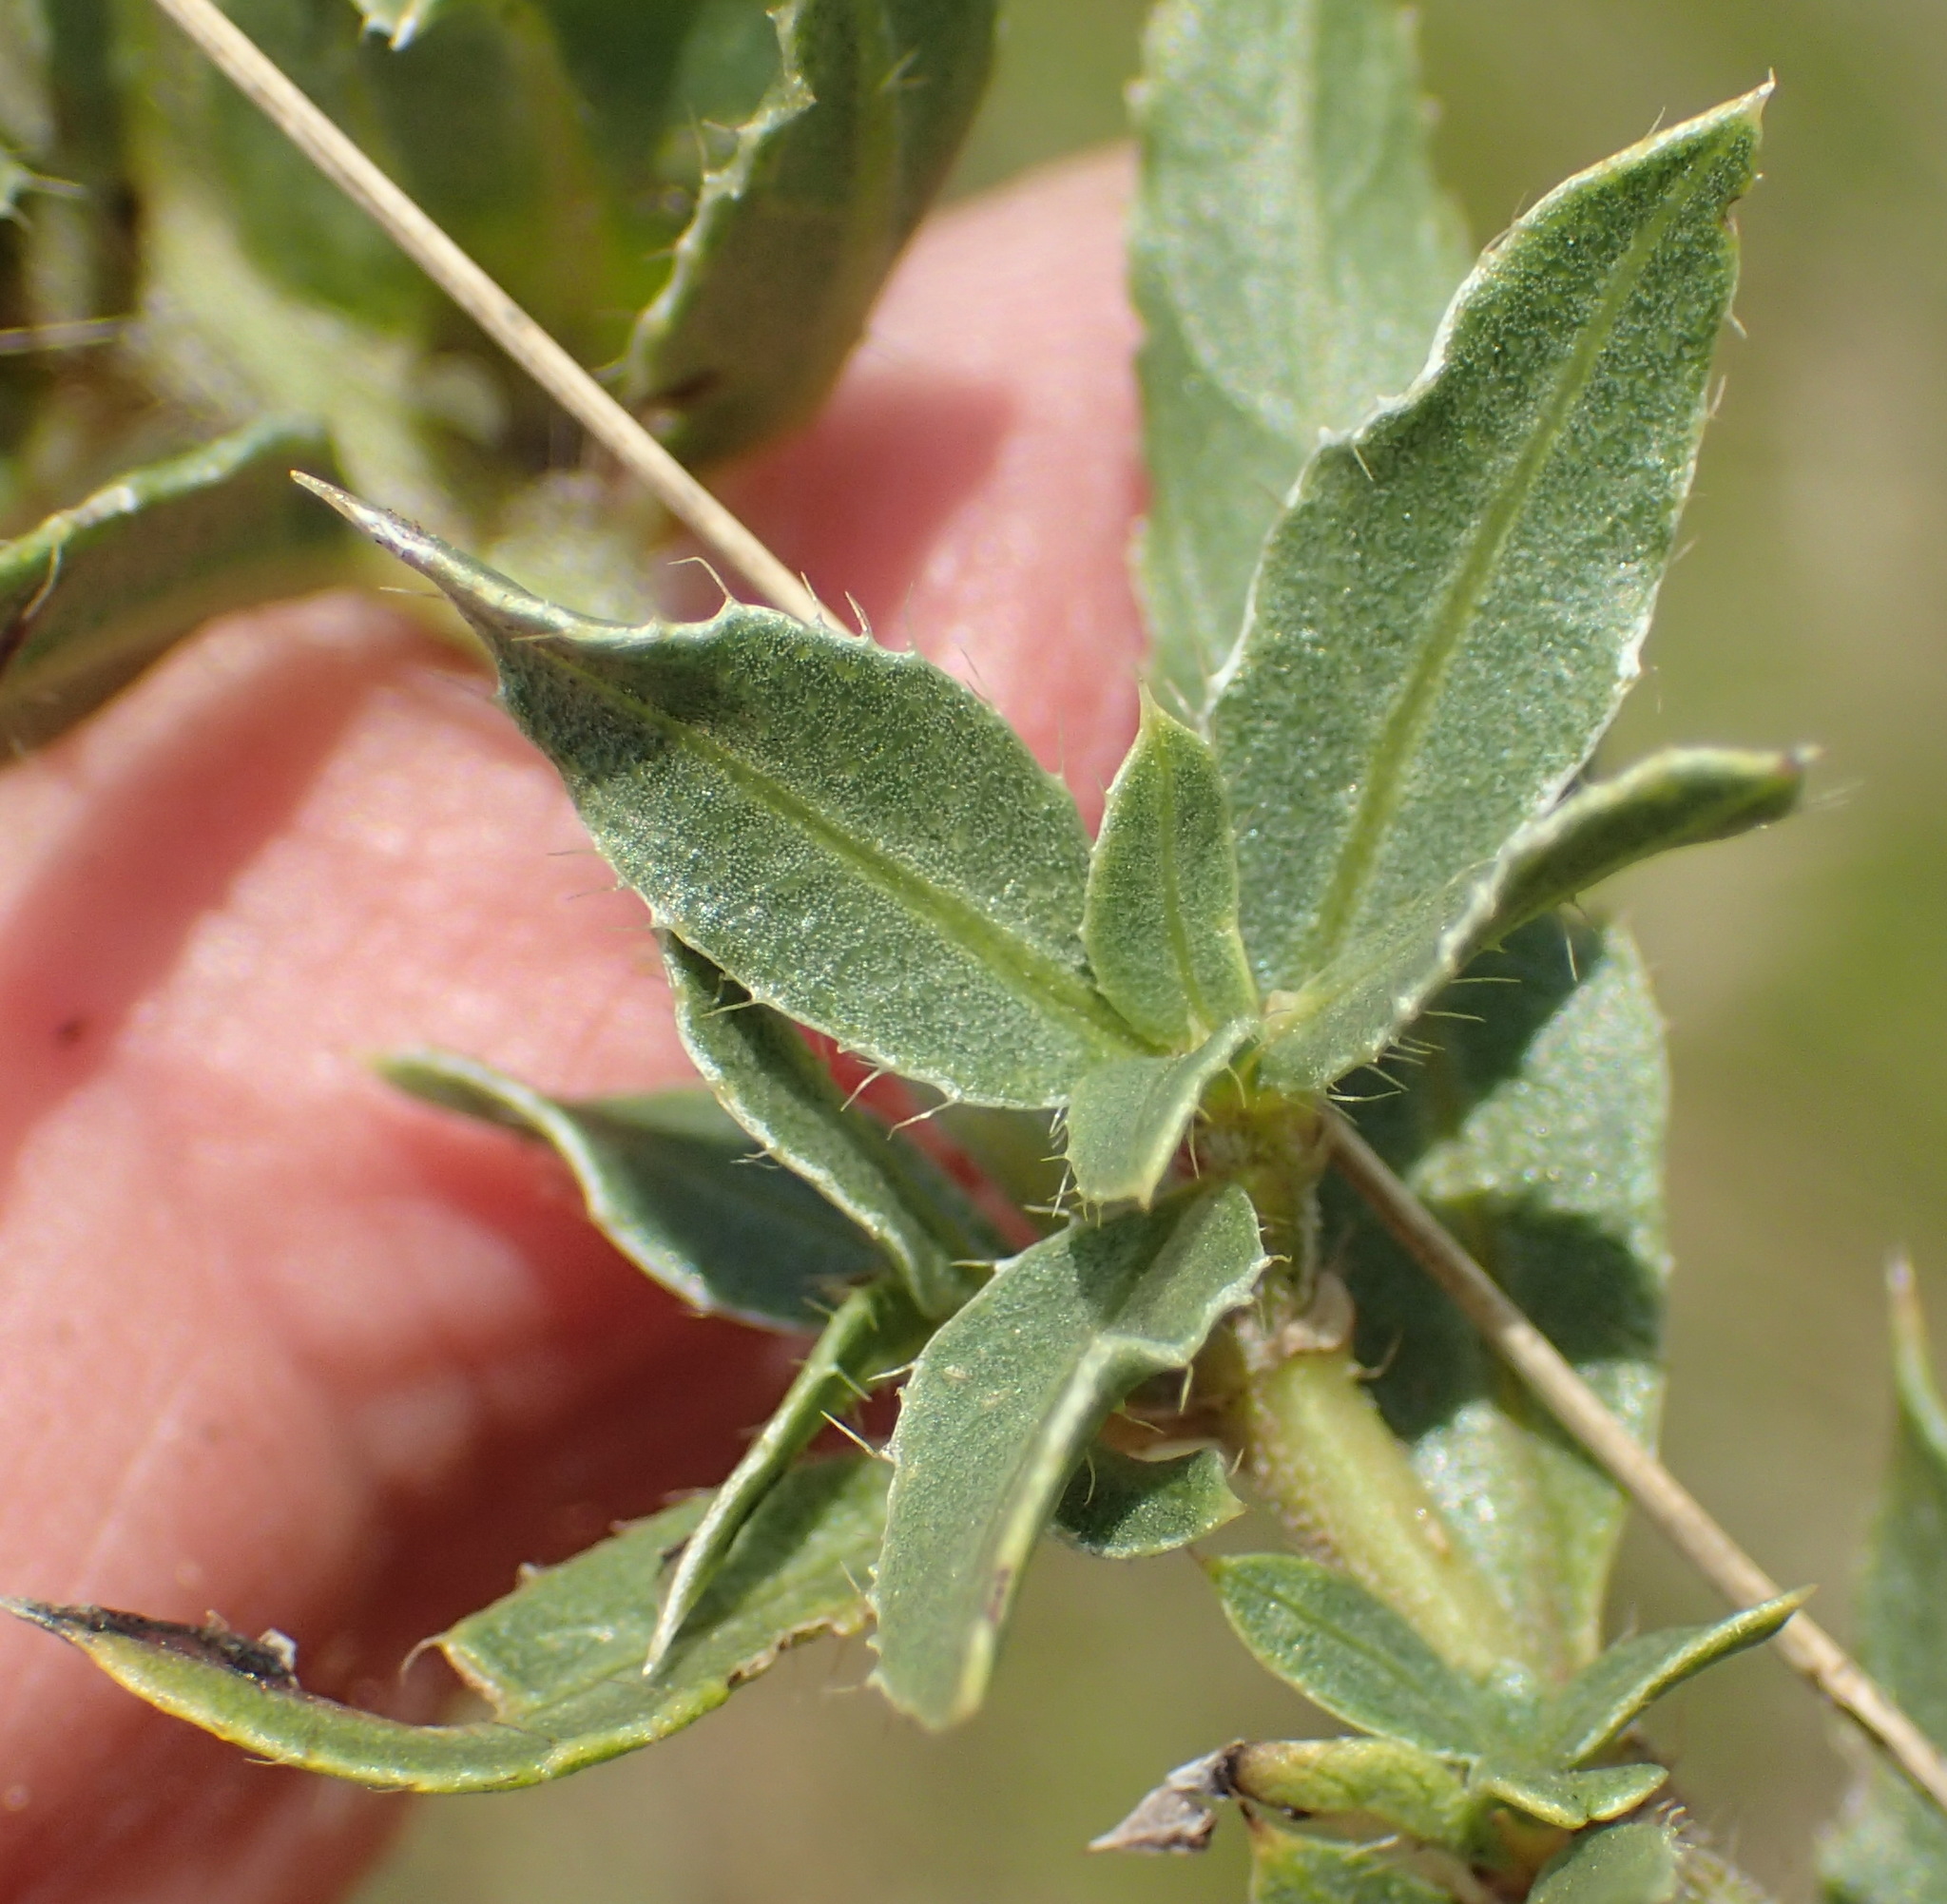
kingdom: Plantae
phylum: Tracheophyta
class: Magnoliopsida
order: Lamiales
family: Acanthaceae
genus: Barleria
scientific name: Barleria macrostegia
